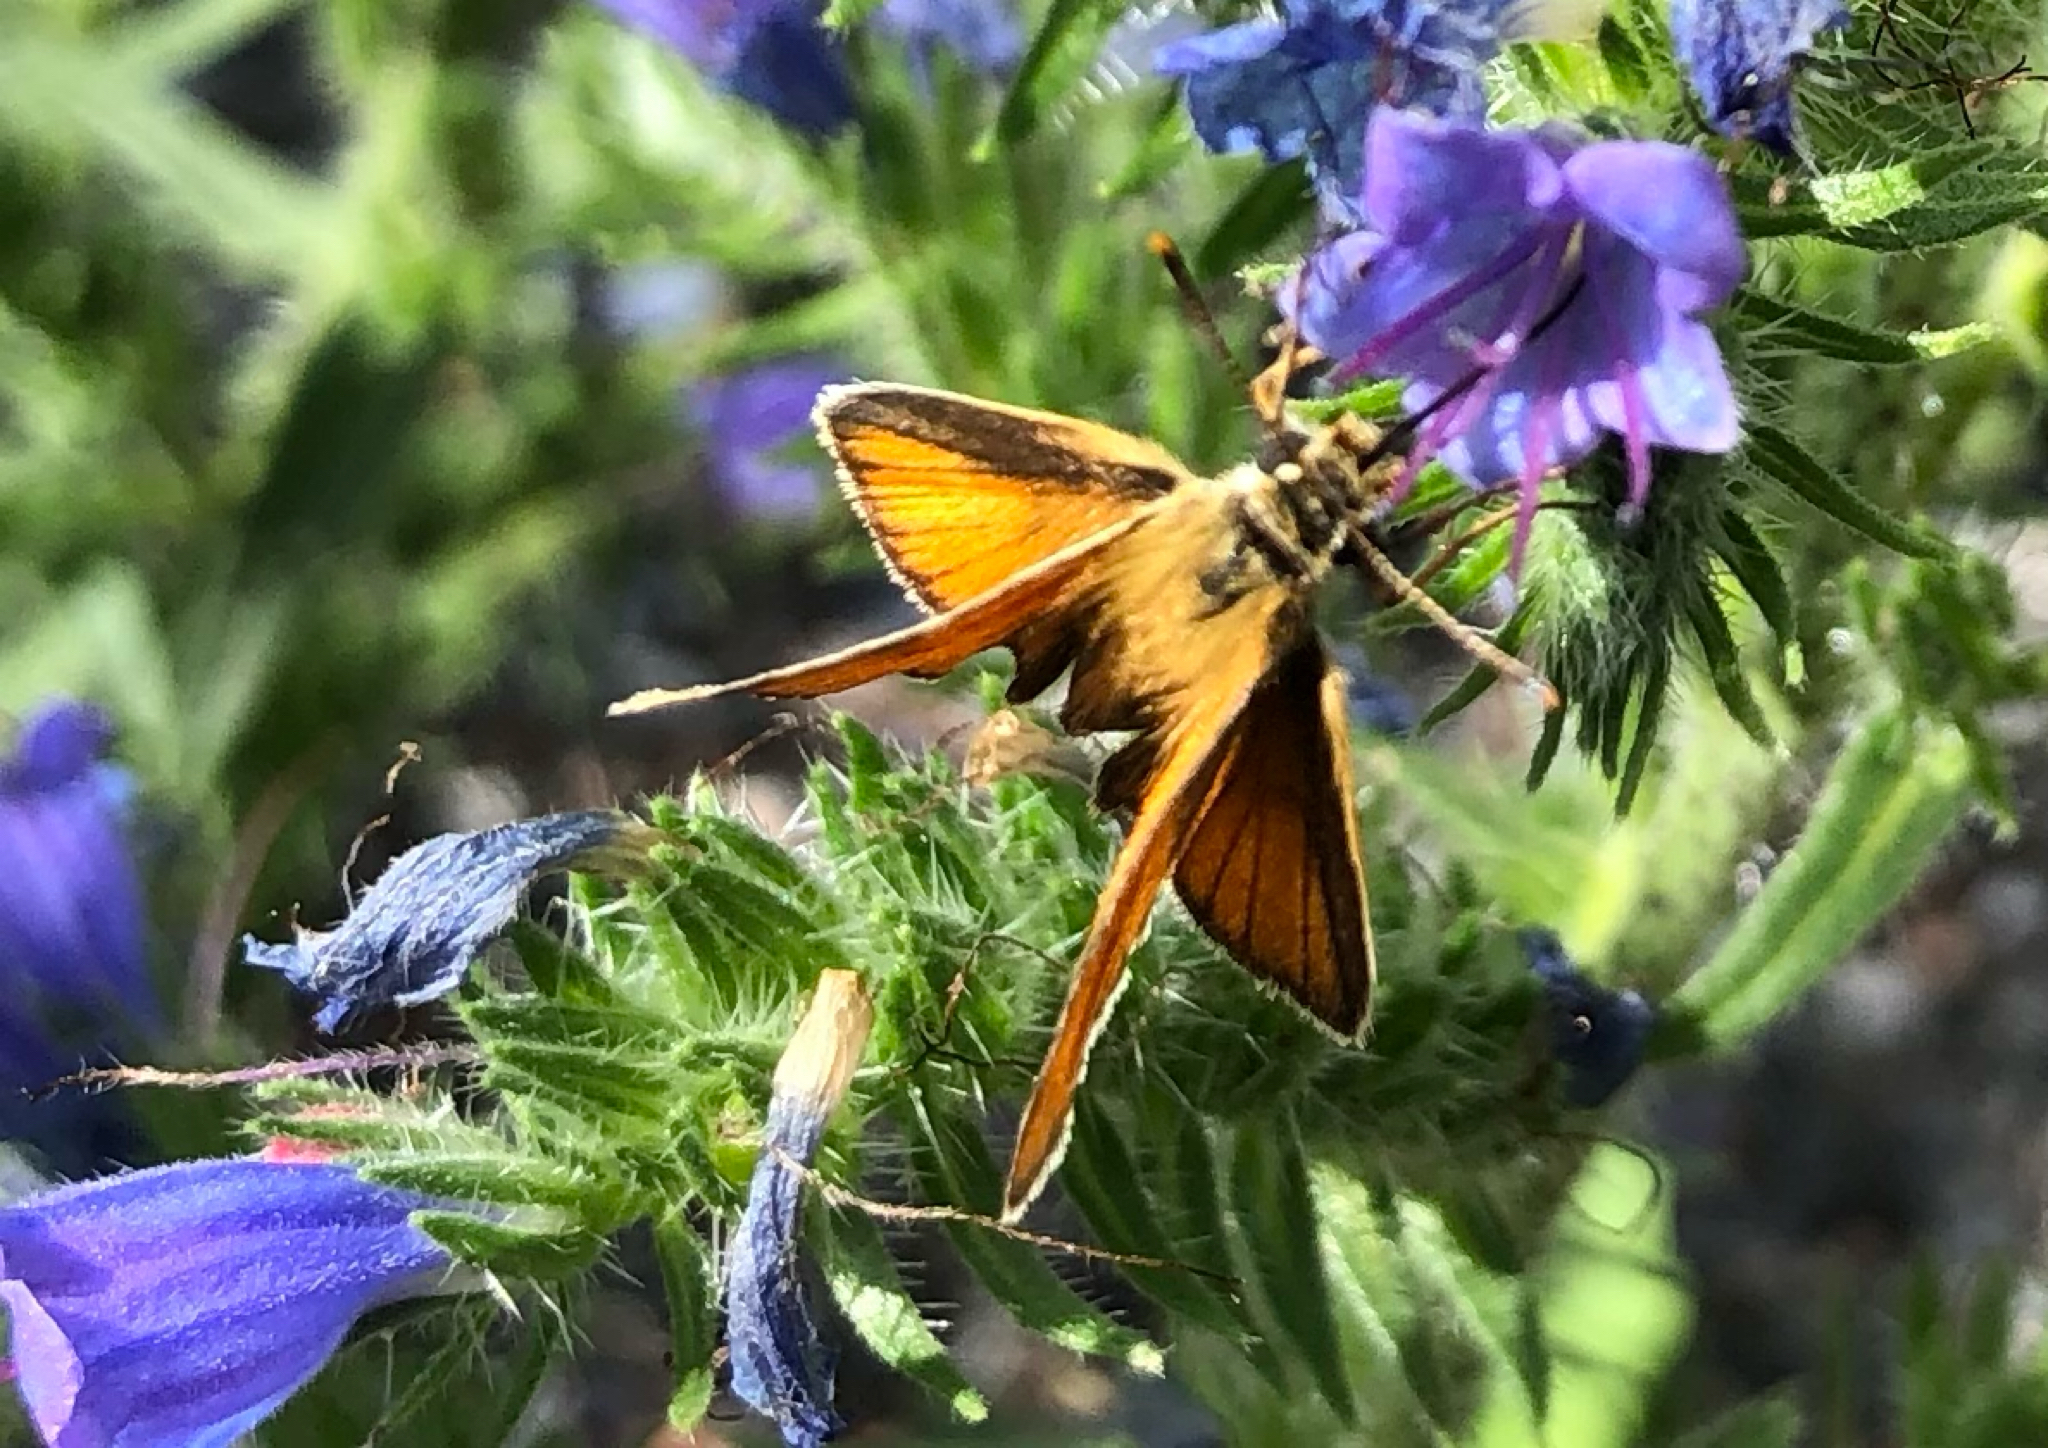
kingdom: Animalia
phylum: Arthropoda
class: Insecta
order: Lepidoptera
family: Hesperiidae
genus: Thymelicus
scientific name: Thymelicus lineola
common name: Essex skipper
